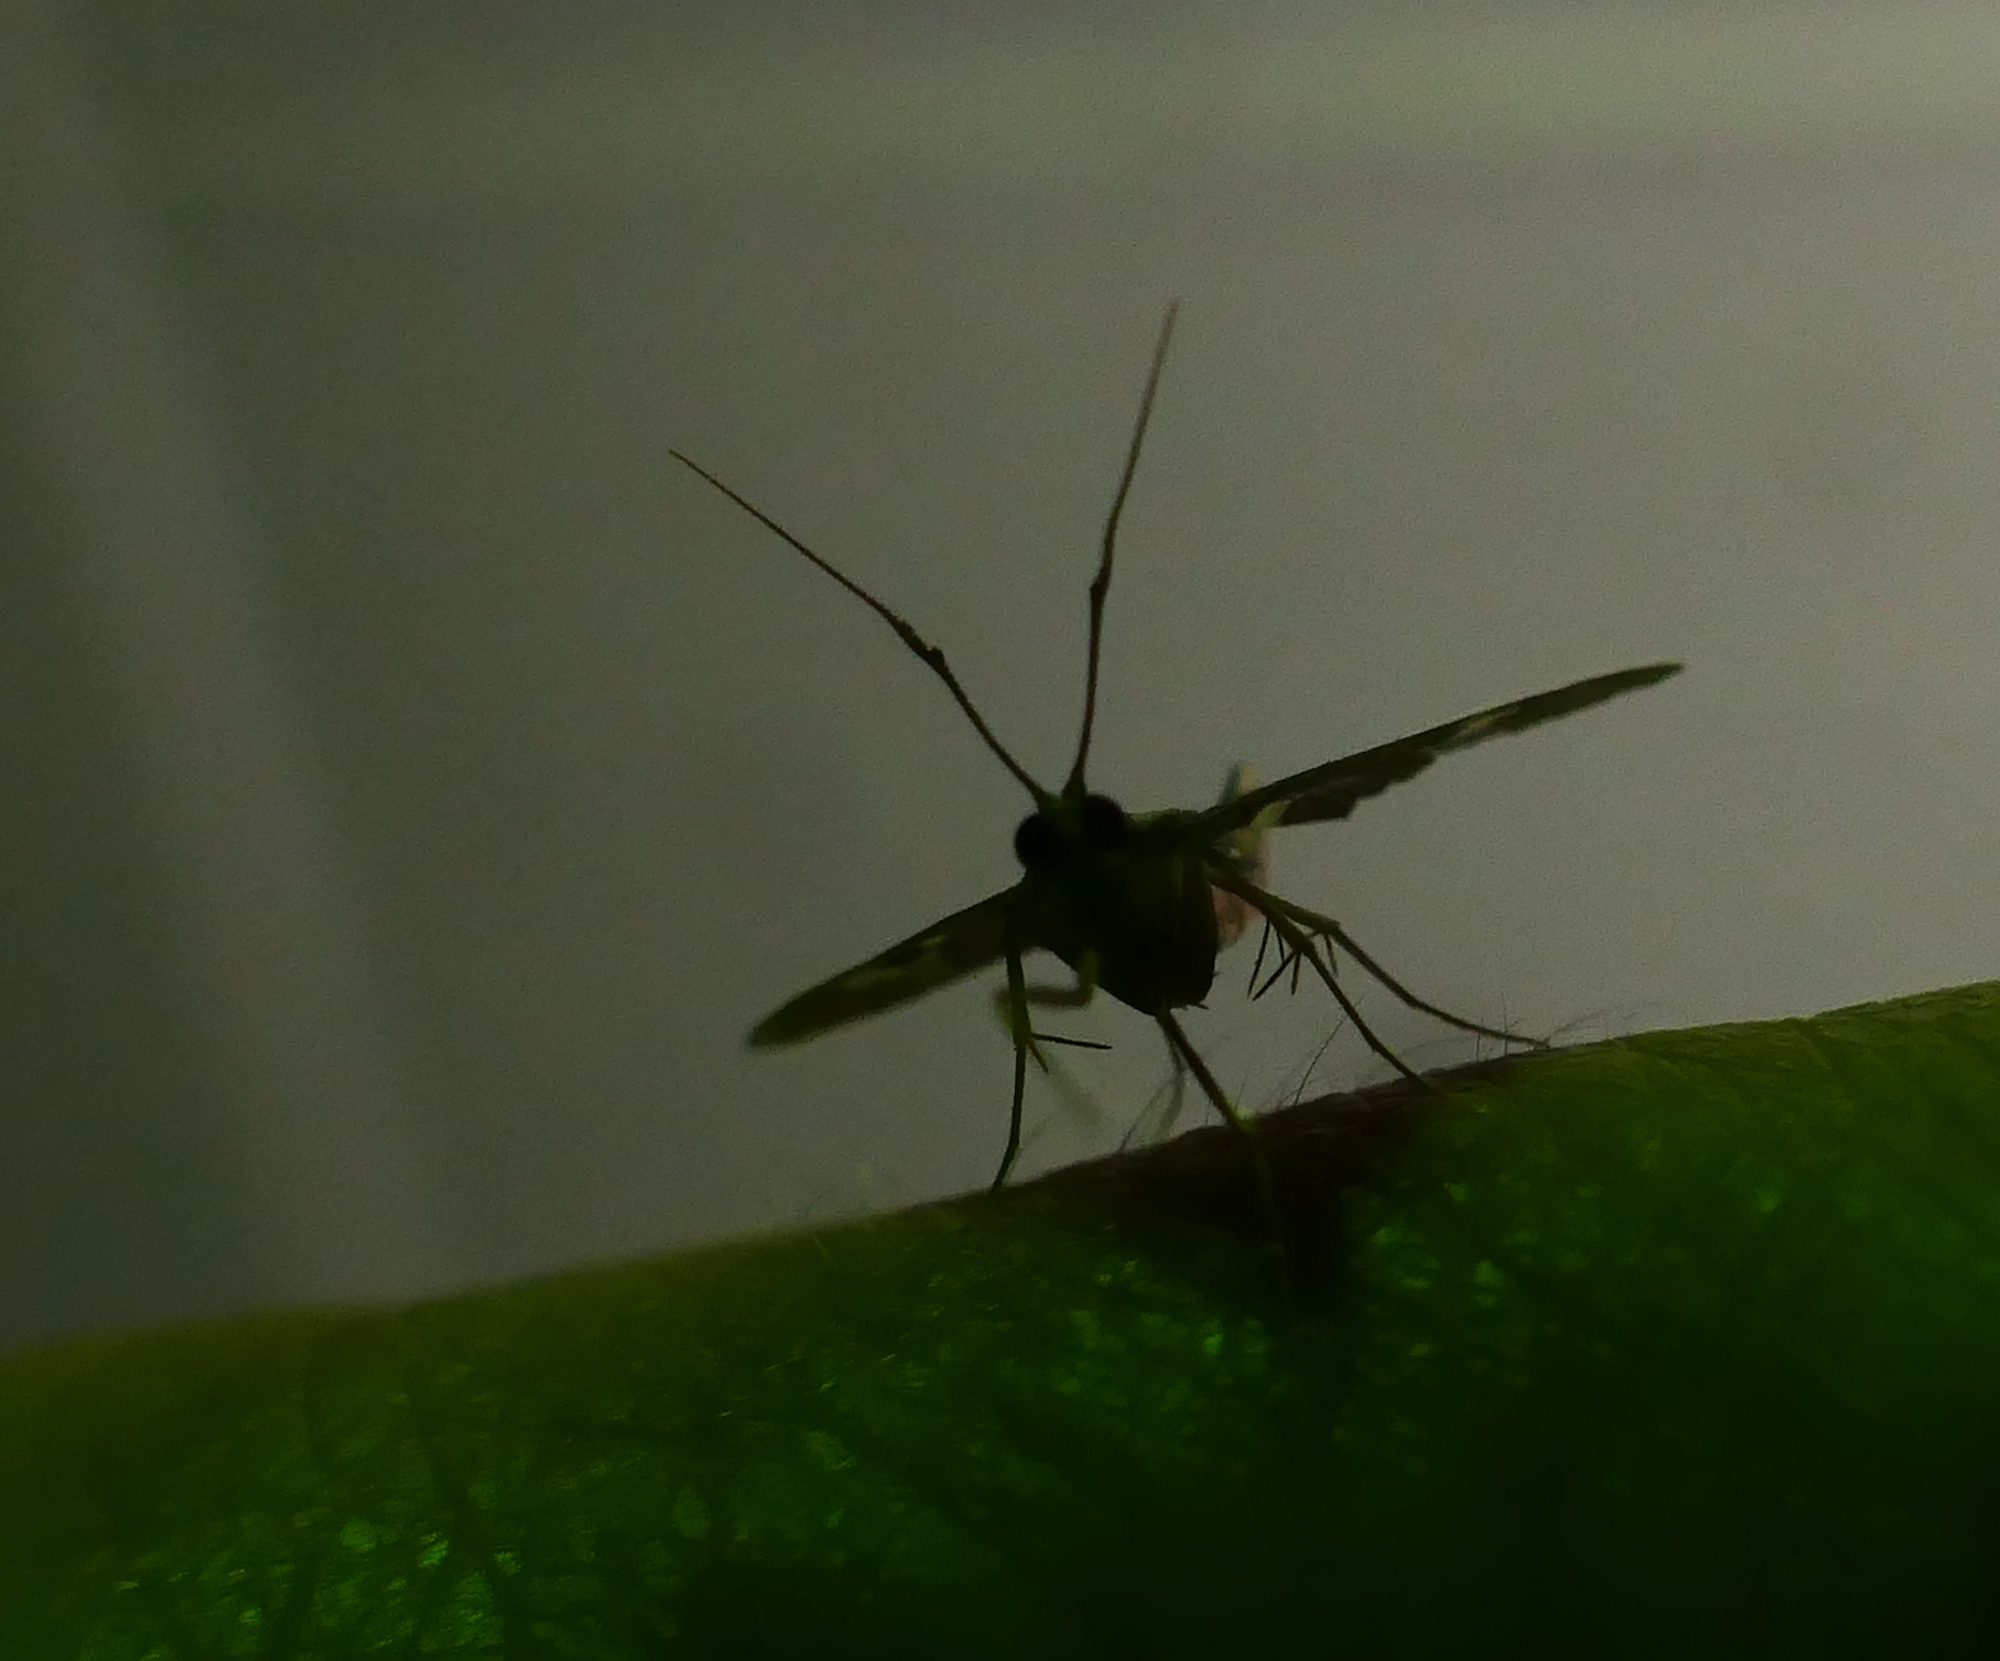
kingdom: Animalia
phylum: Arthropoda
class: Insecta
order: Lepidoptera
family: Crambidae
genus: Desmia
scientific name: Desmia funeralis
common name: Grape leaf folder moth
